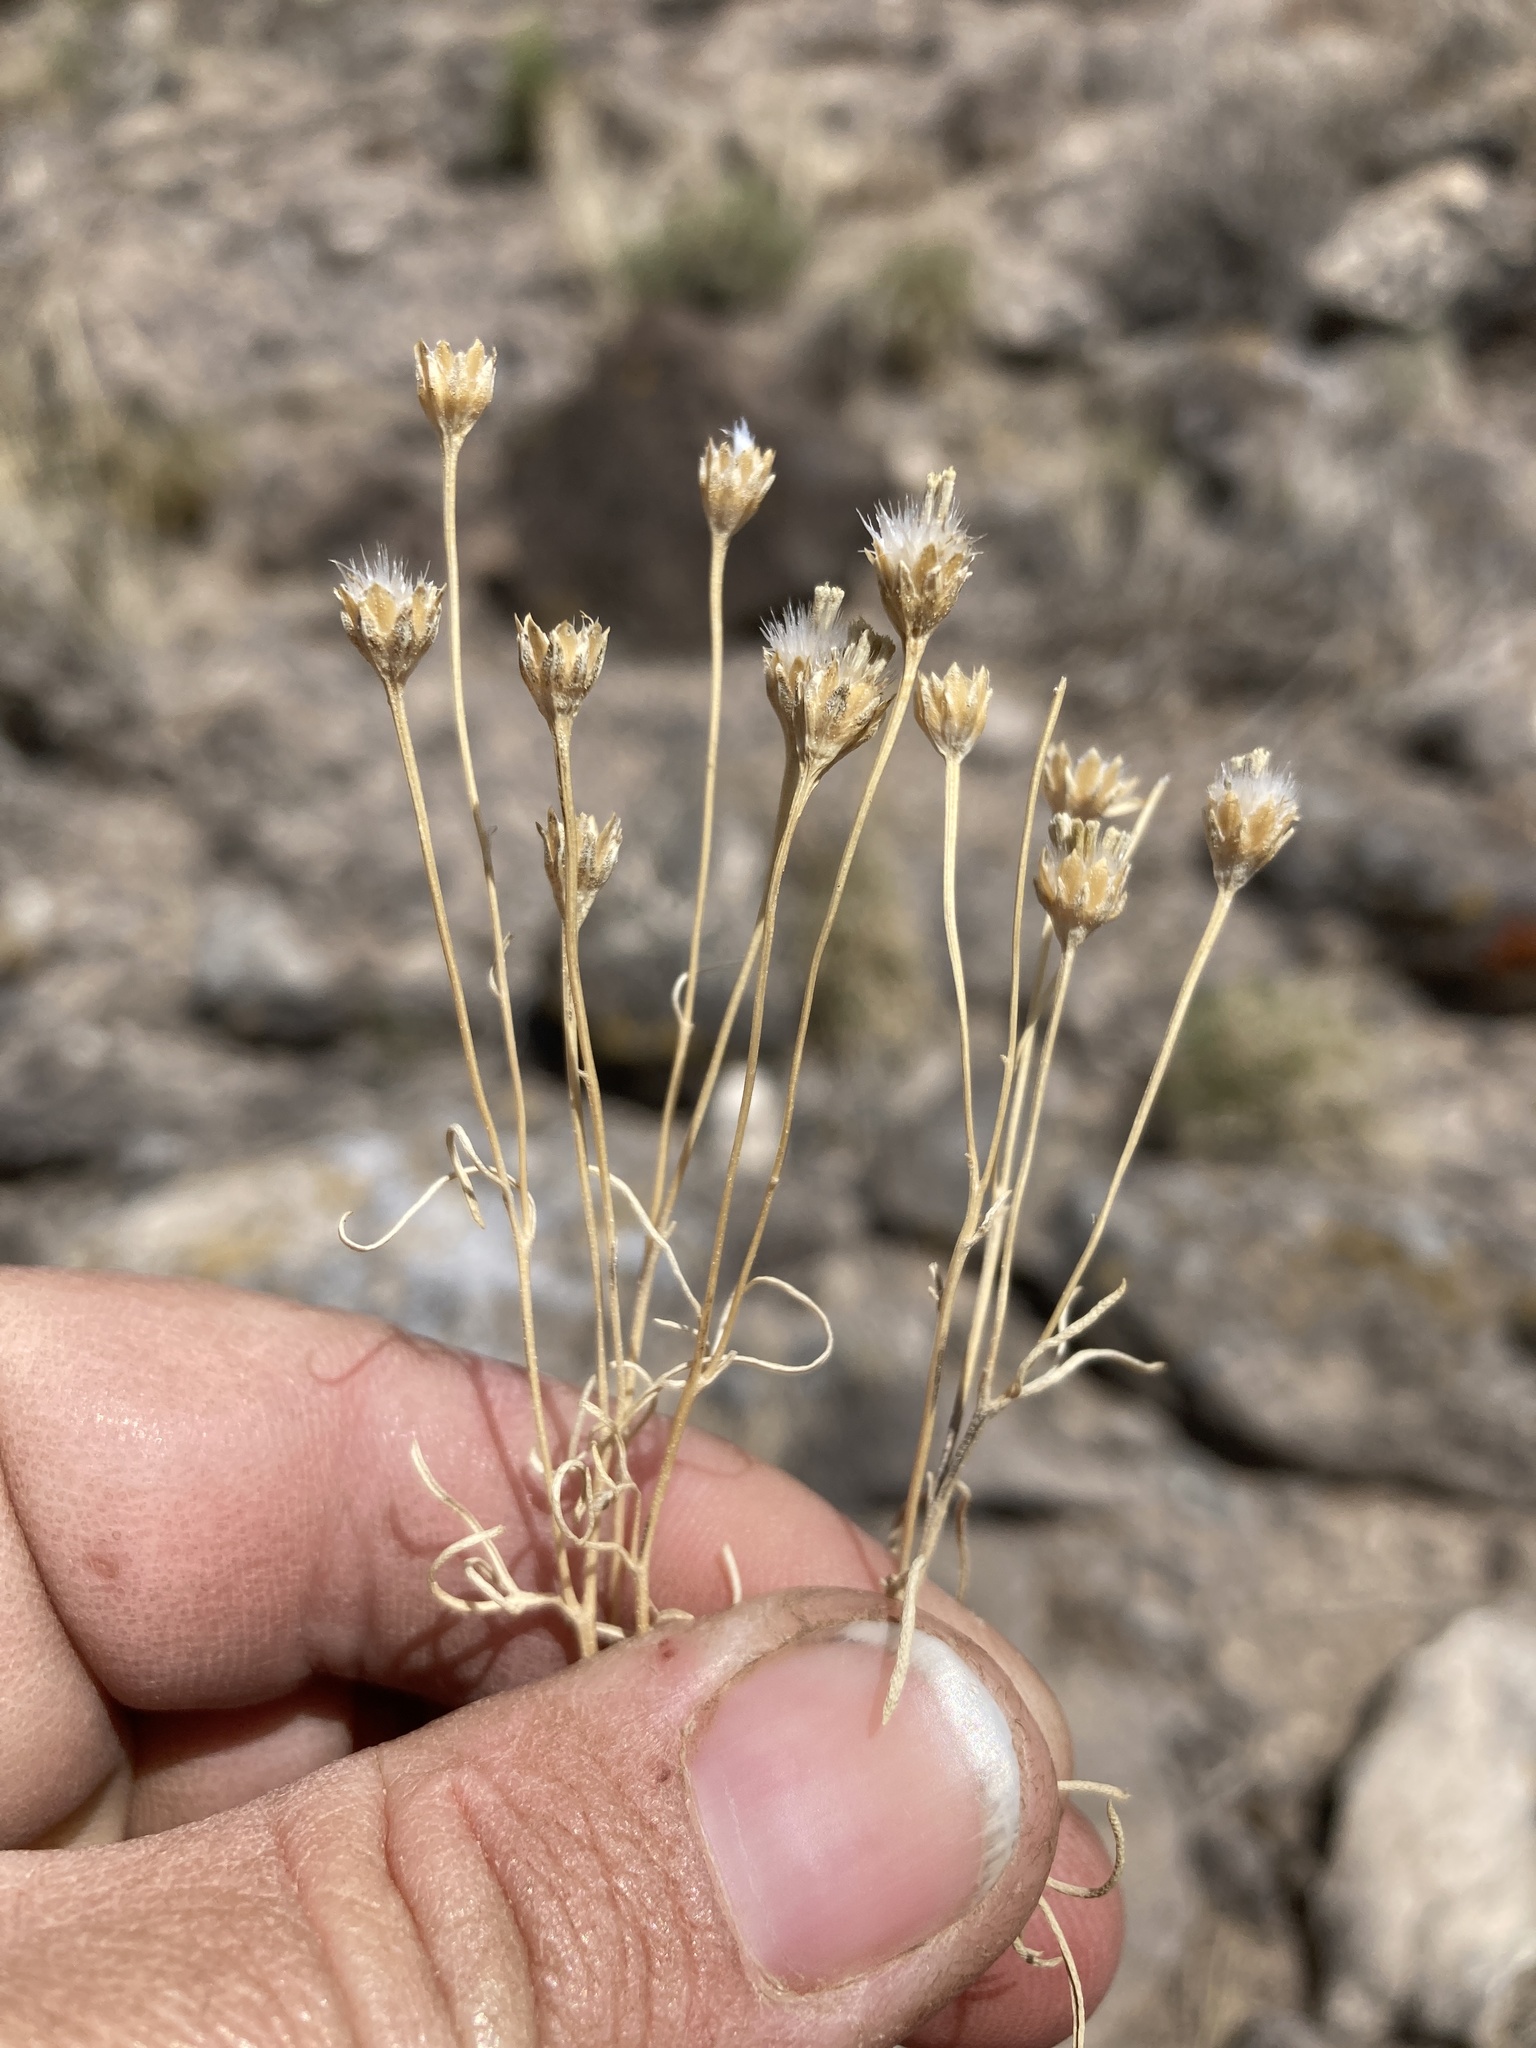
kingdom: Plantae
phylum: Tracheophyta
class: Magnoliopsida
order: Asterales
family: Asteraceae
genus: Hymenoxys
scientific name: Hymenoxys richardsonii
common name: Pingue rubberweed
